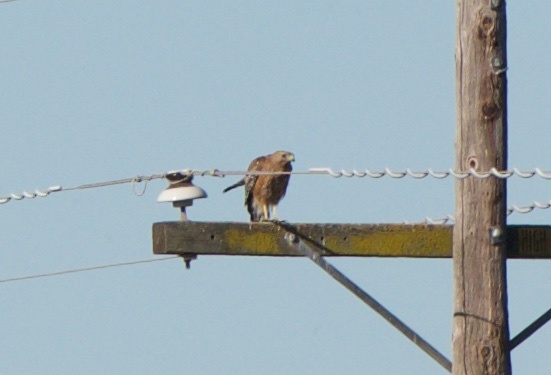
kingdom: Animalia
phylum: Chordata
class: Aves
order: Accipitriformes
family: Accipitridae
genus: Buteo
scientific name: Buteo lineatus
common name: Red-shouldered hawk
